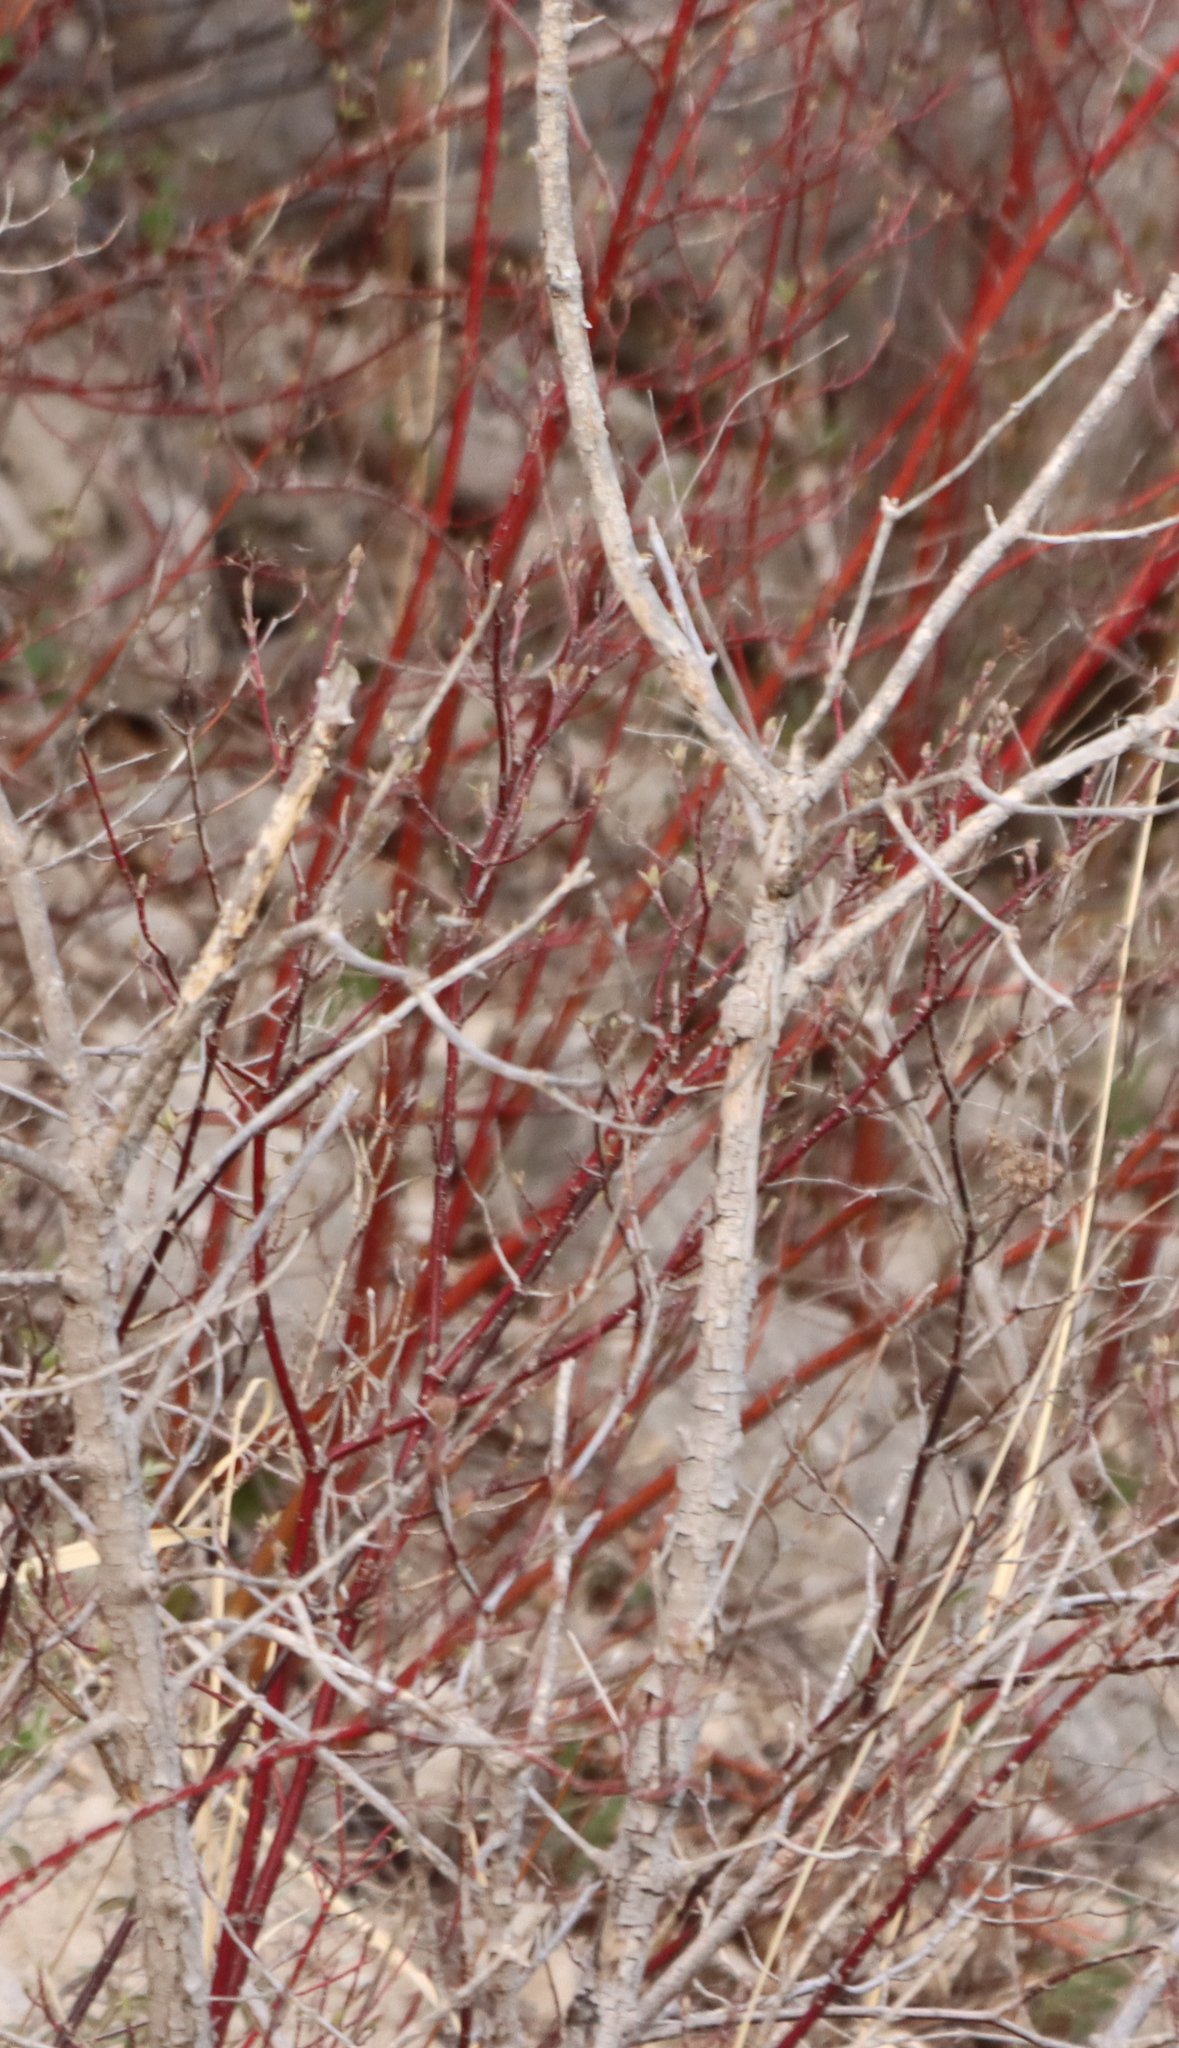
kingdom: Plantae
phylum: Tracheophyta
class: Magnoliopsida
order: Cornales
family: Cornaceae
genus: Cornus
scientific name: Cornus sericea
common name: Red-osier dogwood
